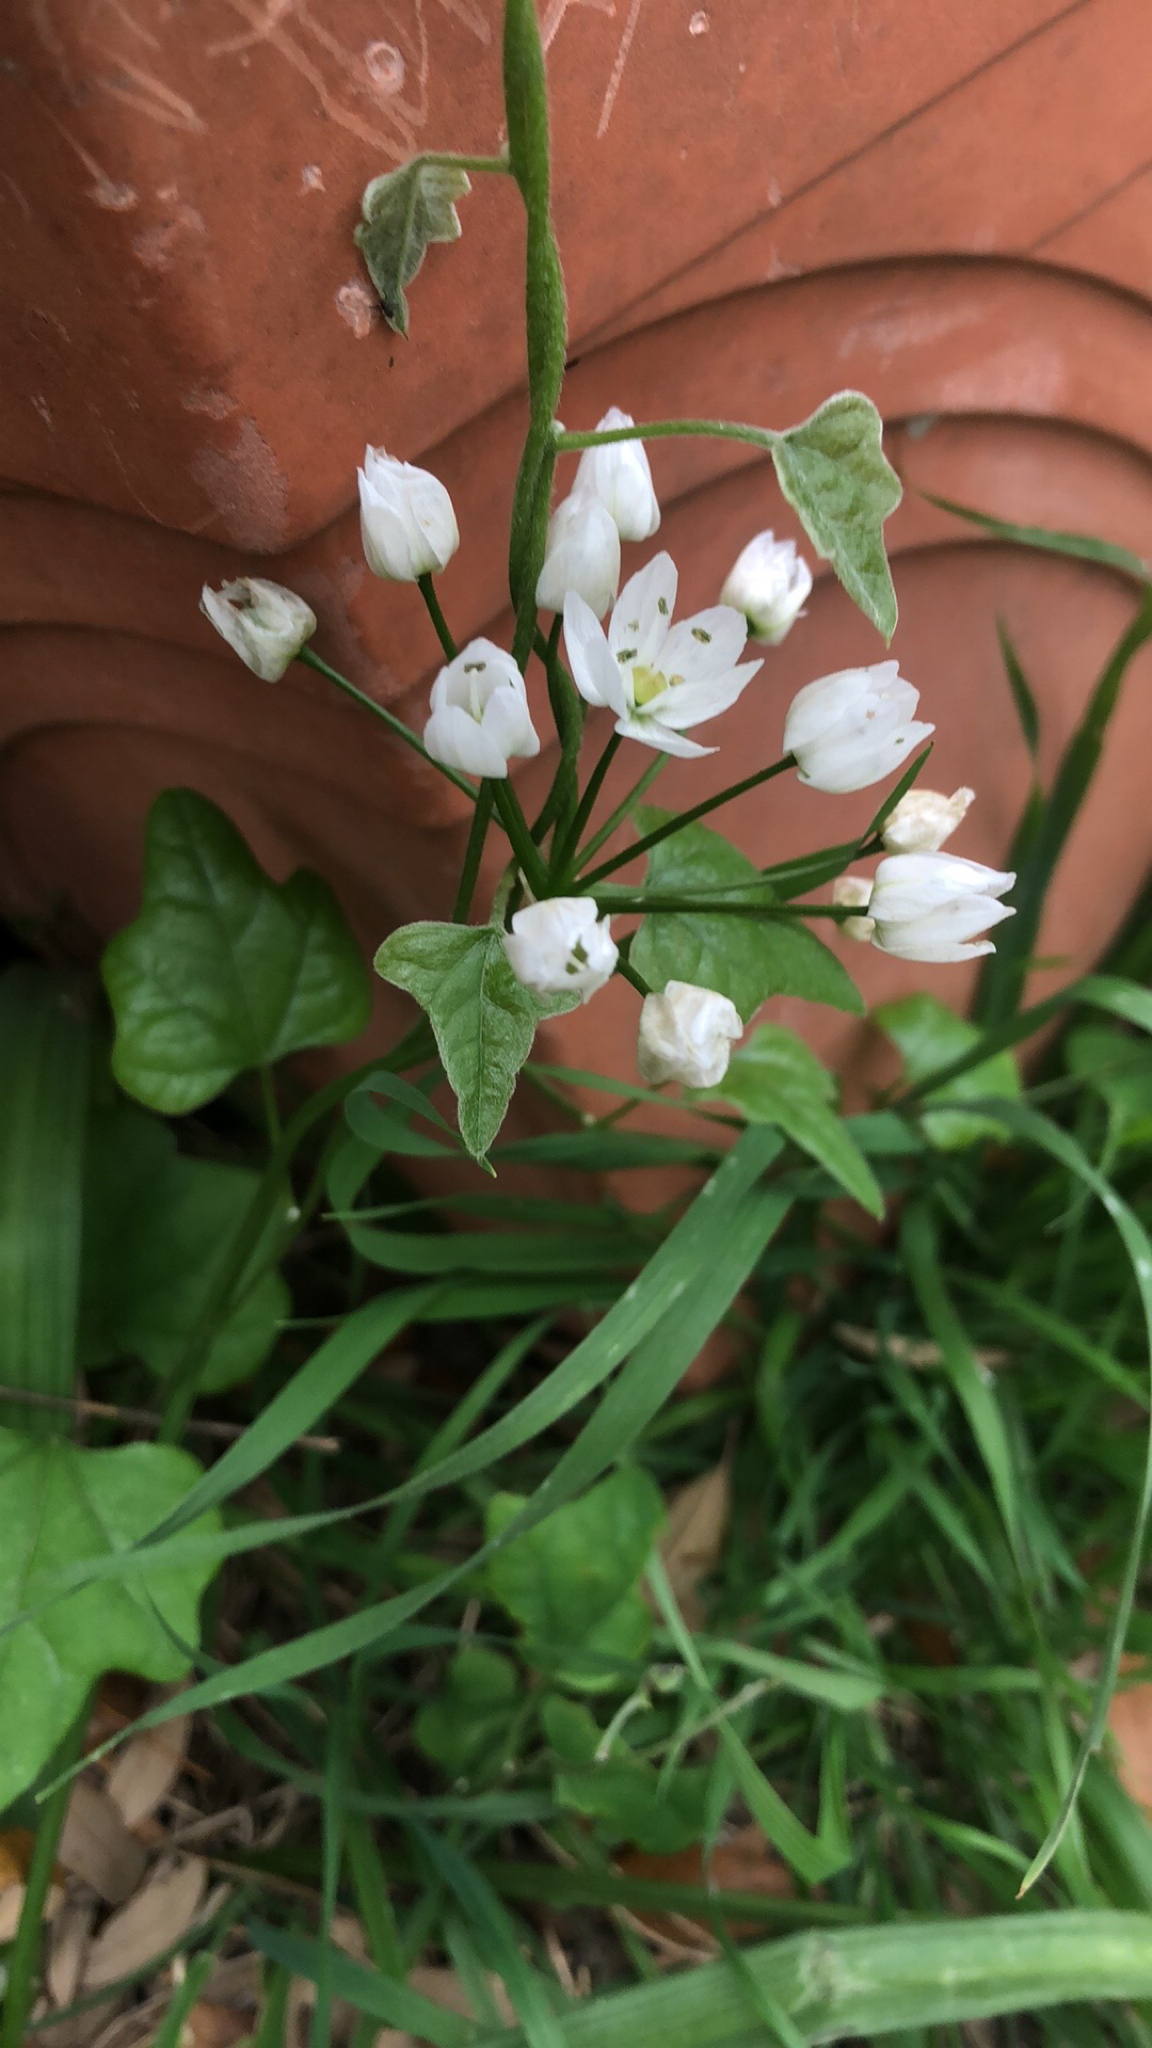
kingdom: Plantae
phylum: Tracheophyta
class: Liliopsida
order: Asparagales
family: Amaryllidaceae
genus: Allium
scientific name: Allium neapolitanum
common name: Neapolitan garlic
